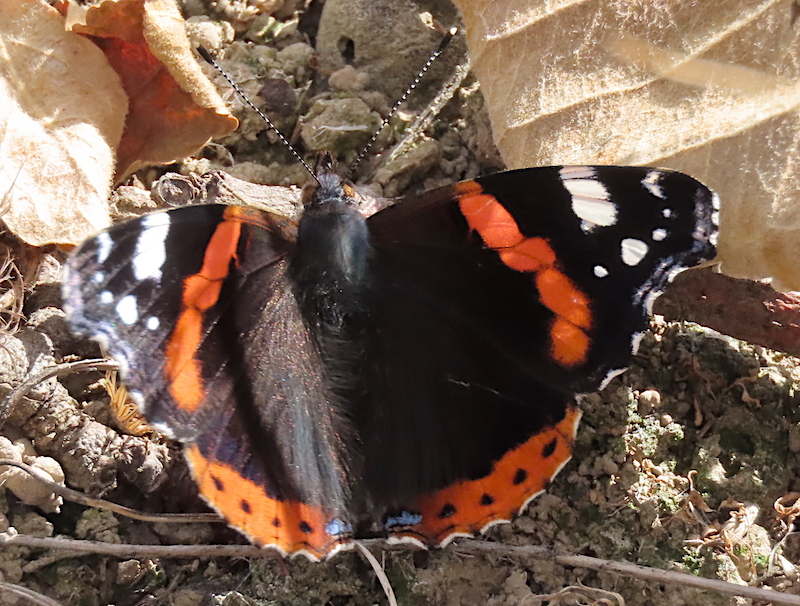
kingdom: Animalia
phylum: Arthropoda
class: Insecta
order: Lepidoptera
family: Nymphalidae
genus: Vanessa
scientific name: Vanessa atalanta
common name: Red admiral
